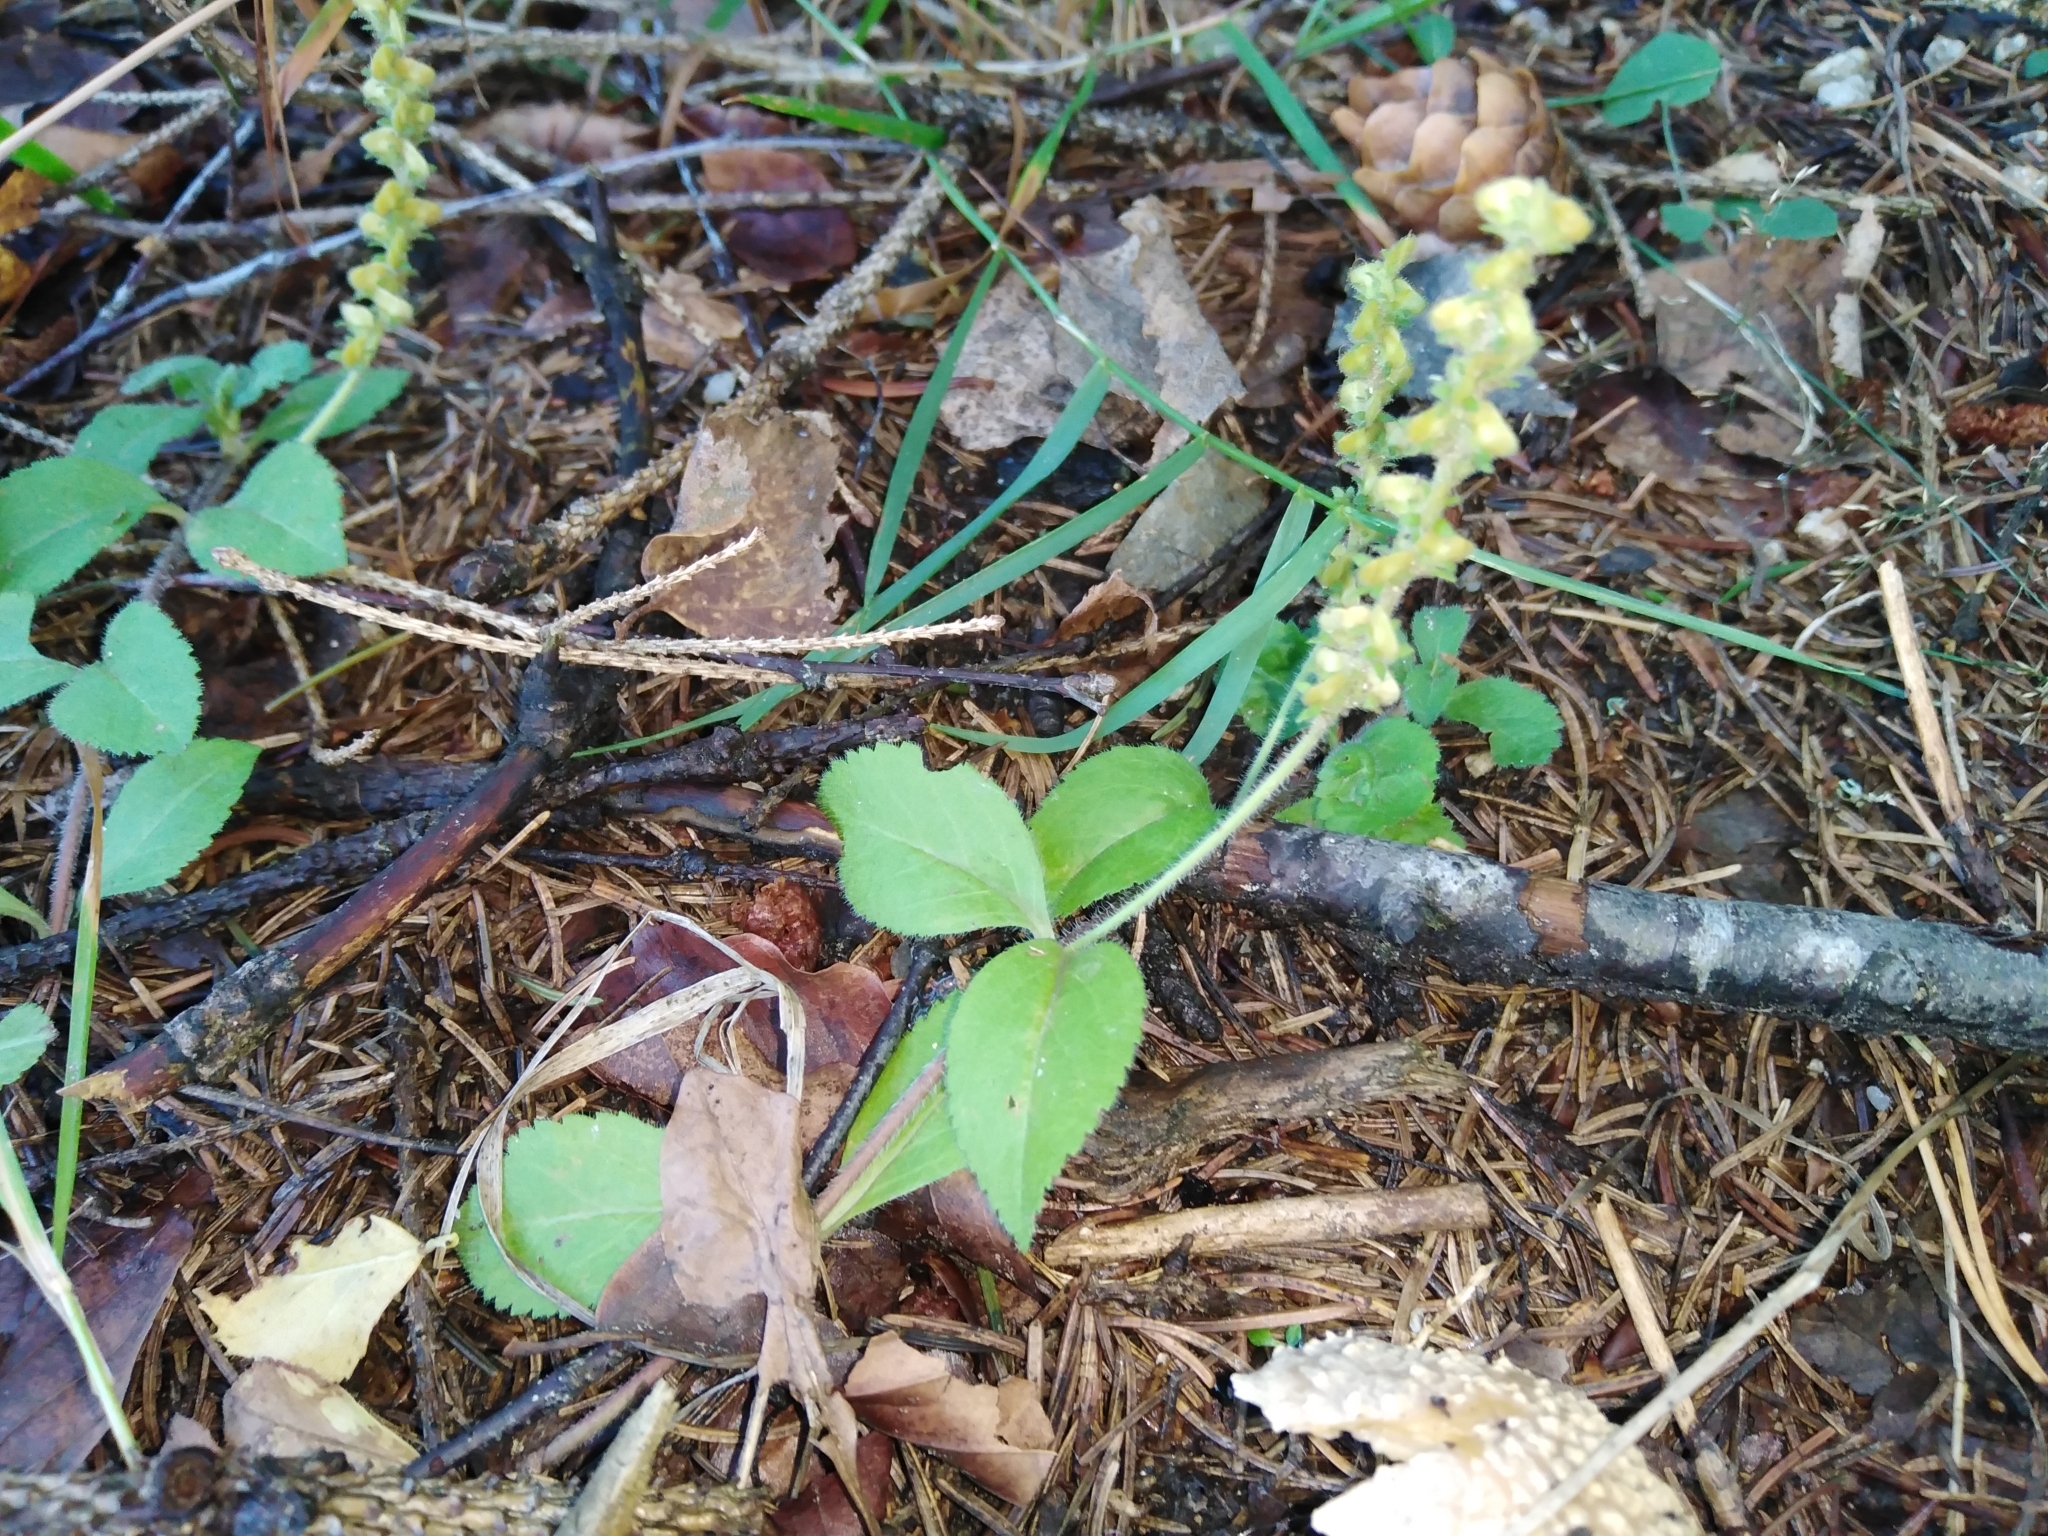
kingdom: Plantae
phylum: Tracheophyta
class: Magnoliopsida
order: Lamiales
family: Plantaginaceae
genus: Veronica
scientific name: Veronica officinalis
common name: Common speedwell
